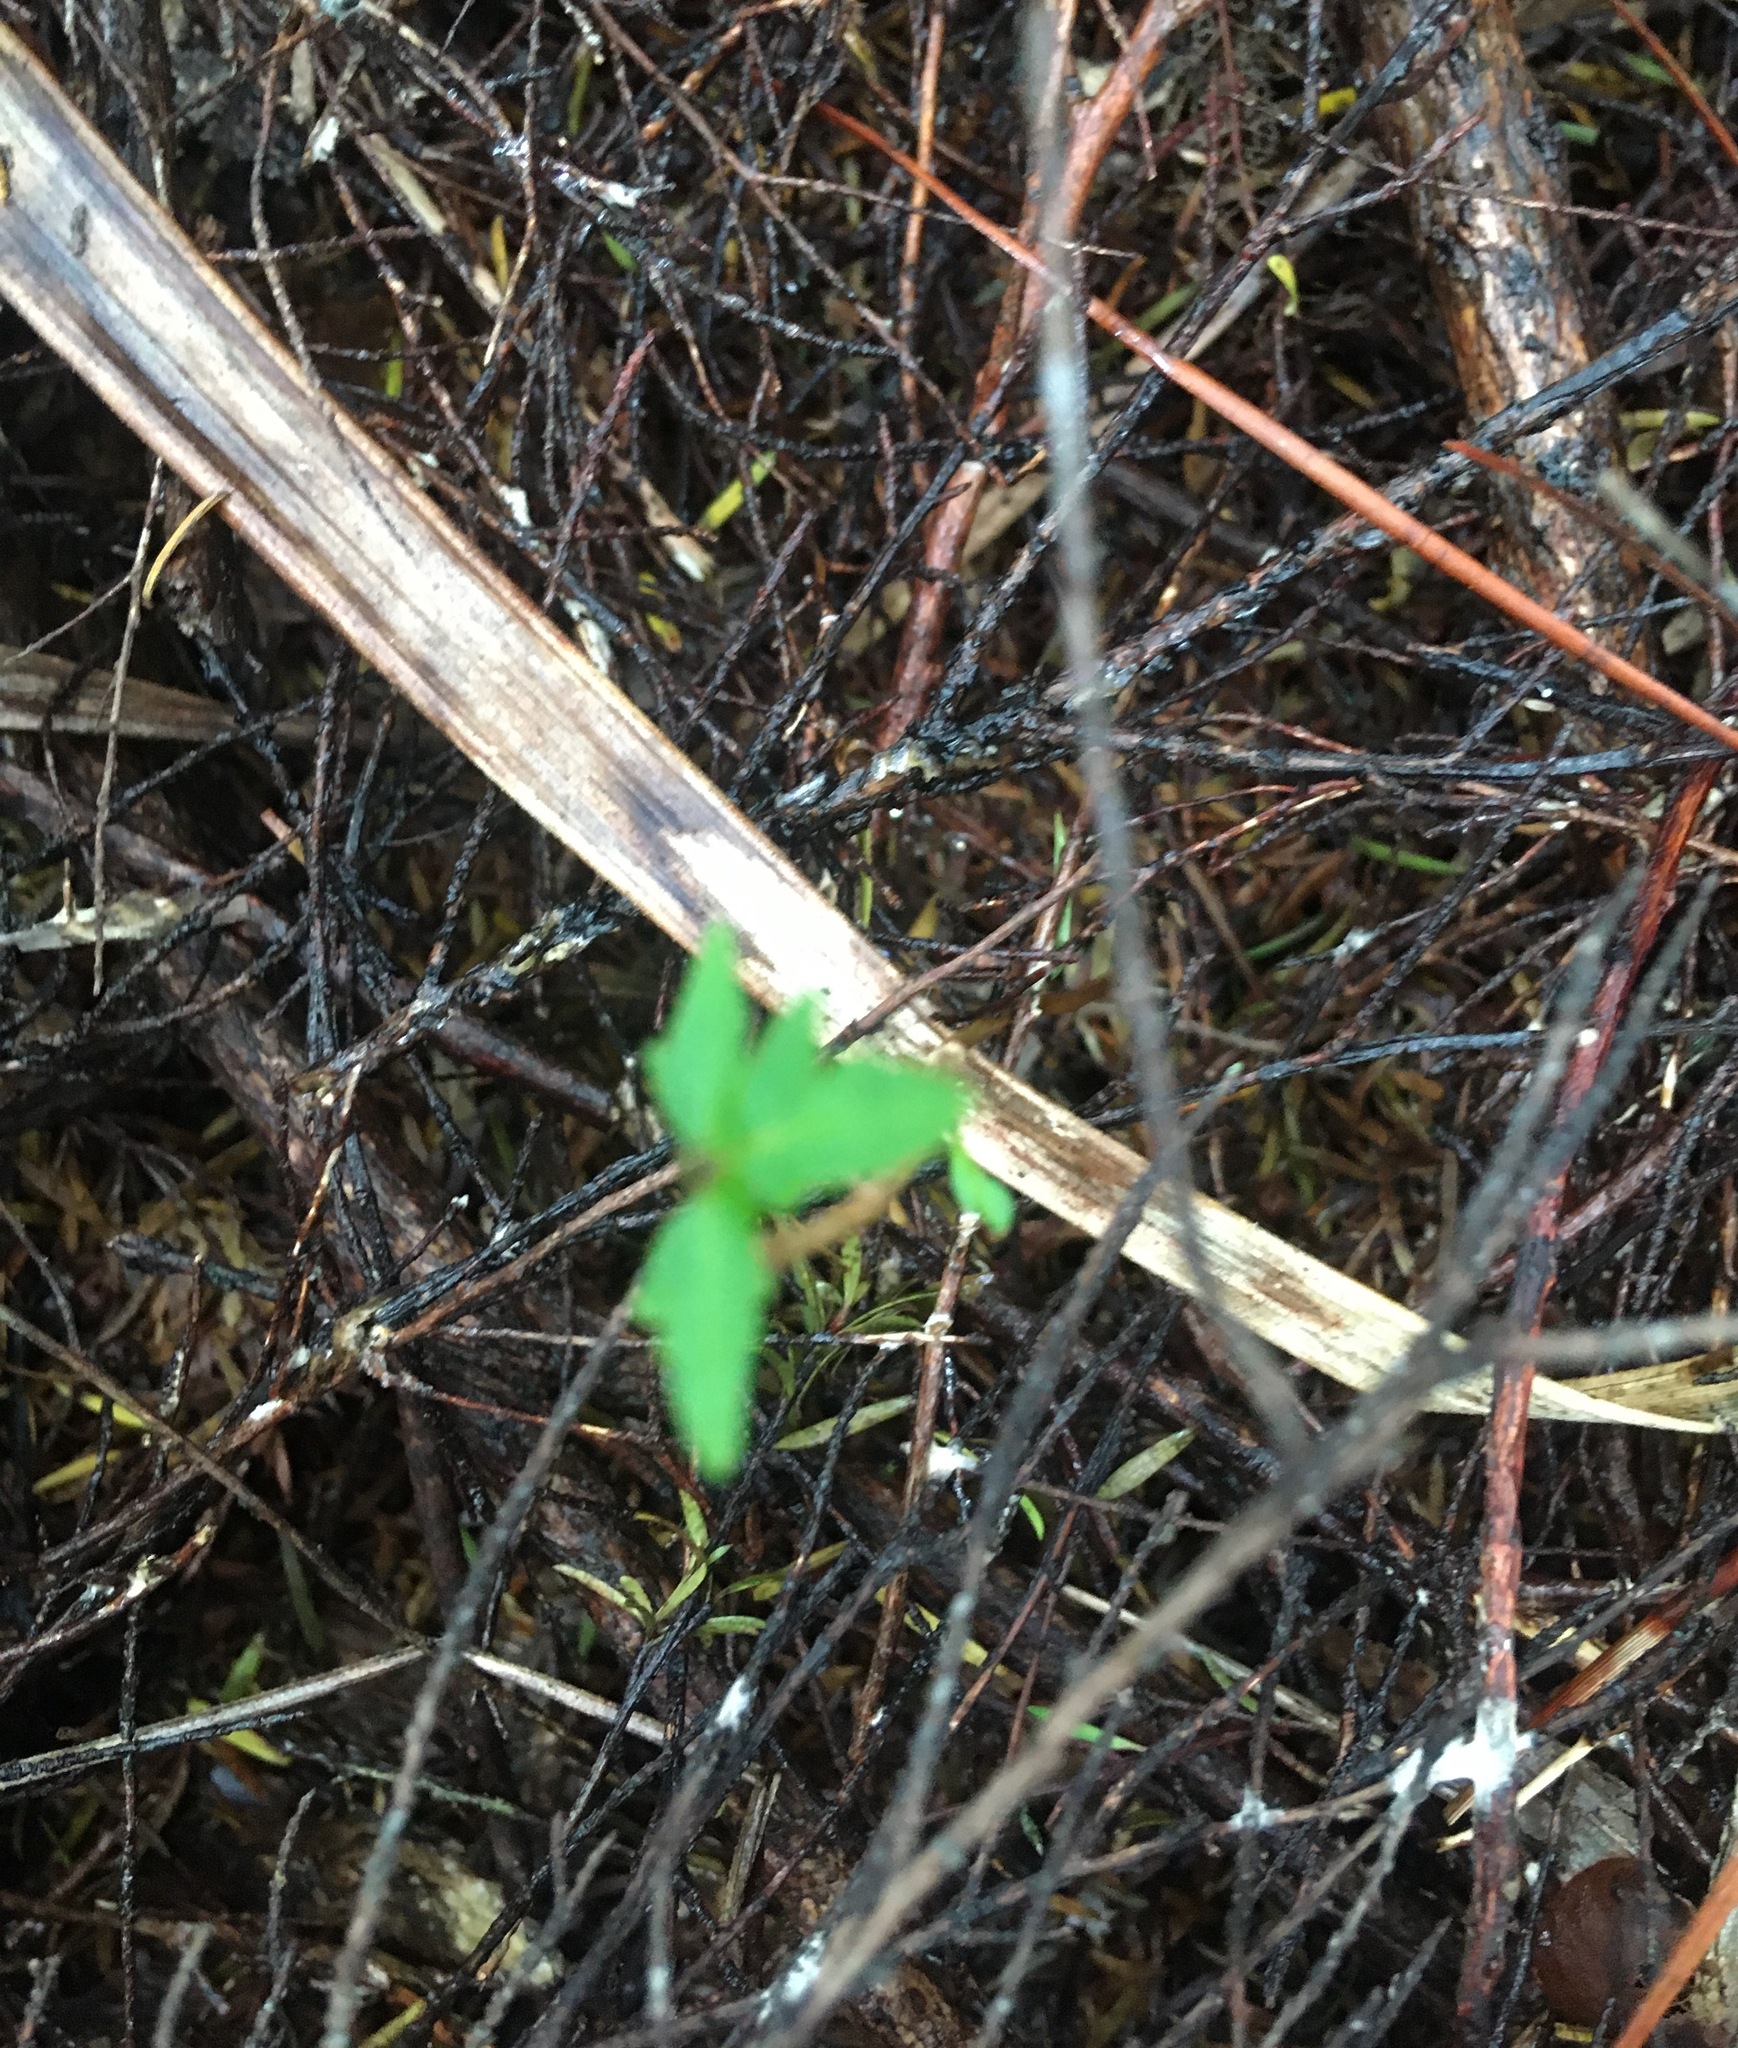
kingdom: Plantae
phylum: Tracheophyta
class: Magnoliopsida
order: Sapindales
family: Simaroubaceae
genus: Ailanthus
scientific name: Ailanthus altissima
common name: Tree-of-heaven
